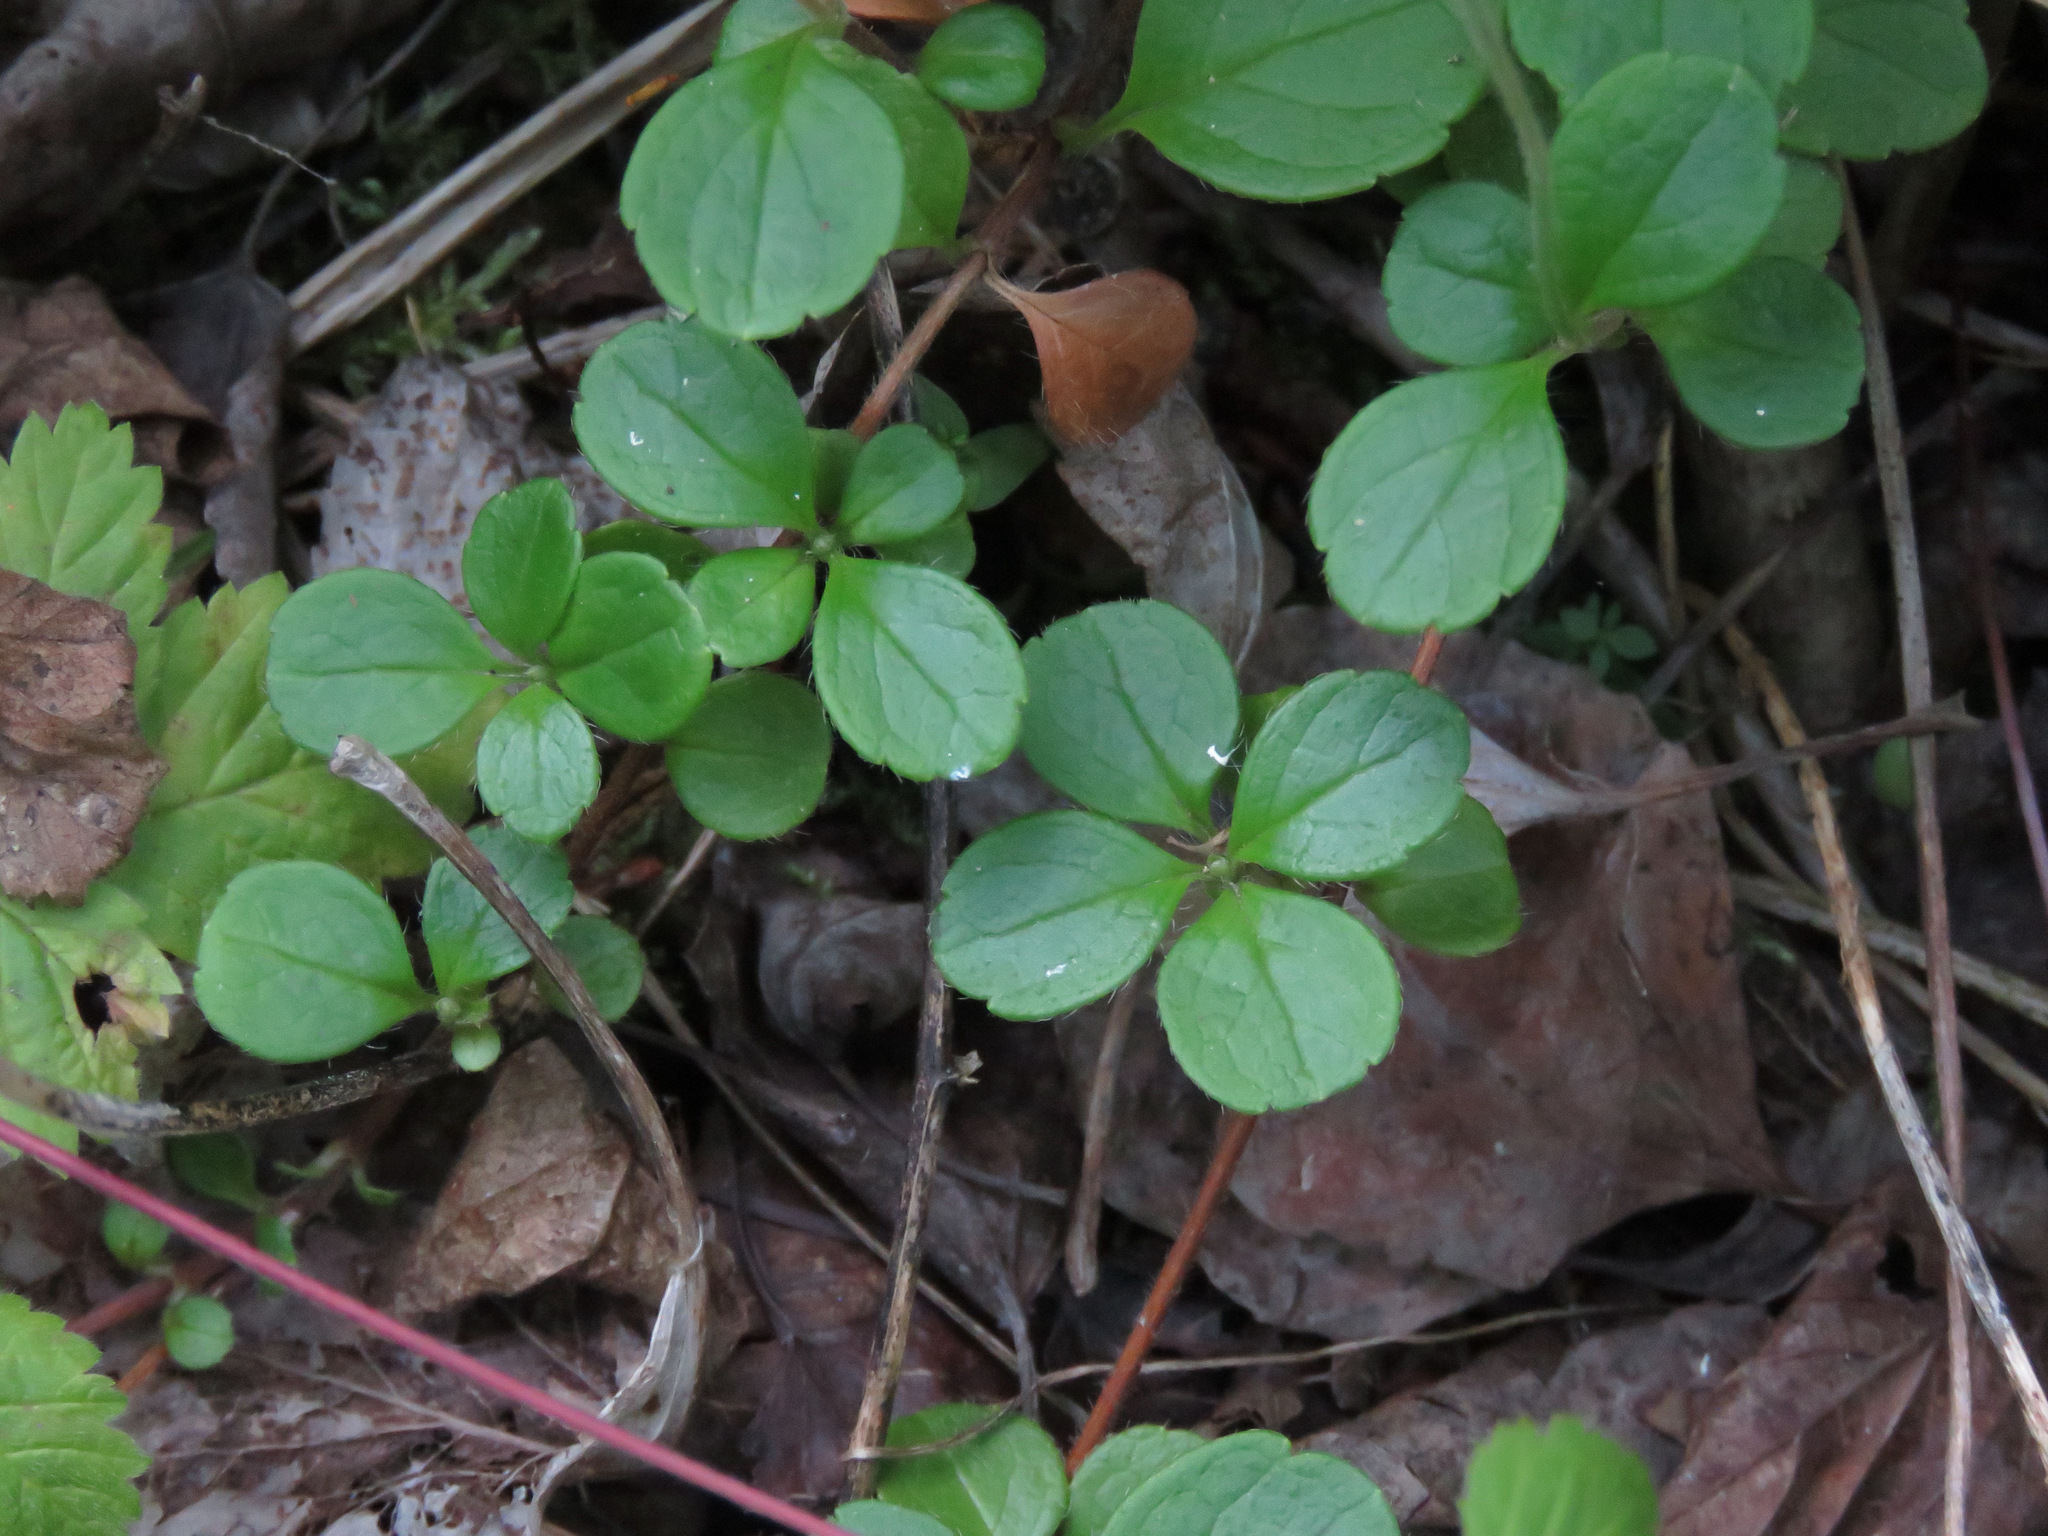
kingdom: Plantae
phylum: Tracheophyta
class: Magnoliopsida
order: Dipsacales
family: Caprifoliaceae
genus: Linnaea
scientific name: Linnaea borealis
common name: Twinflower
